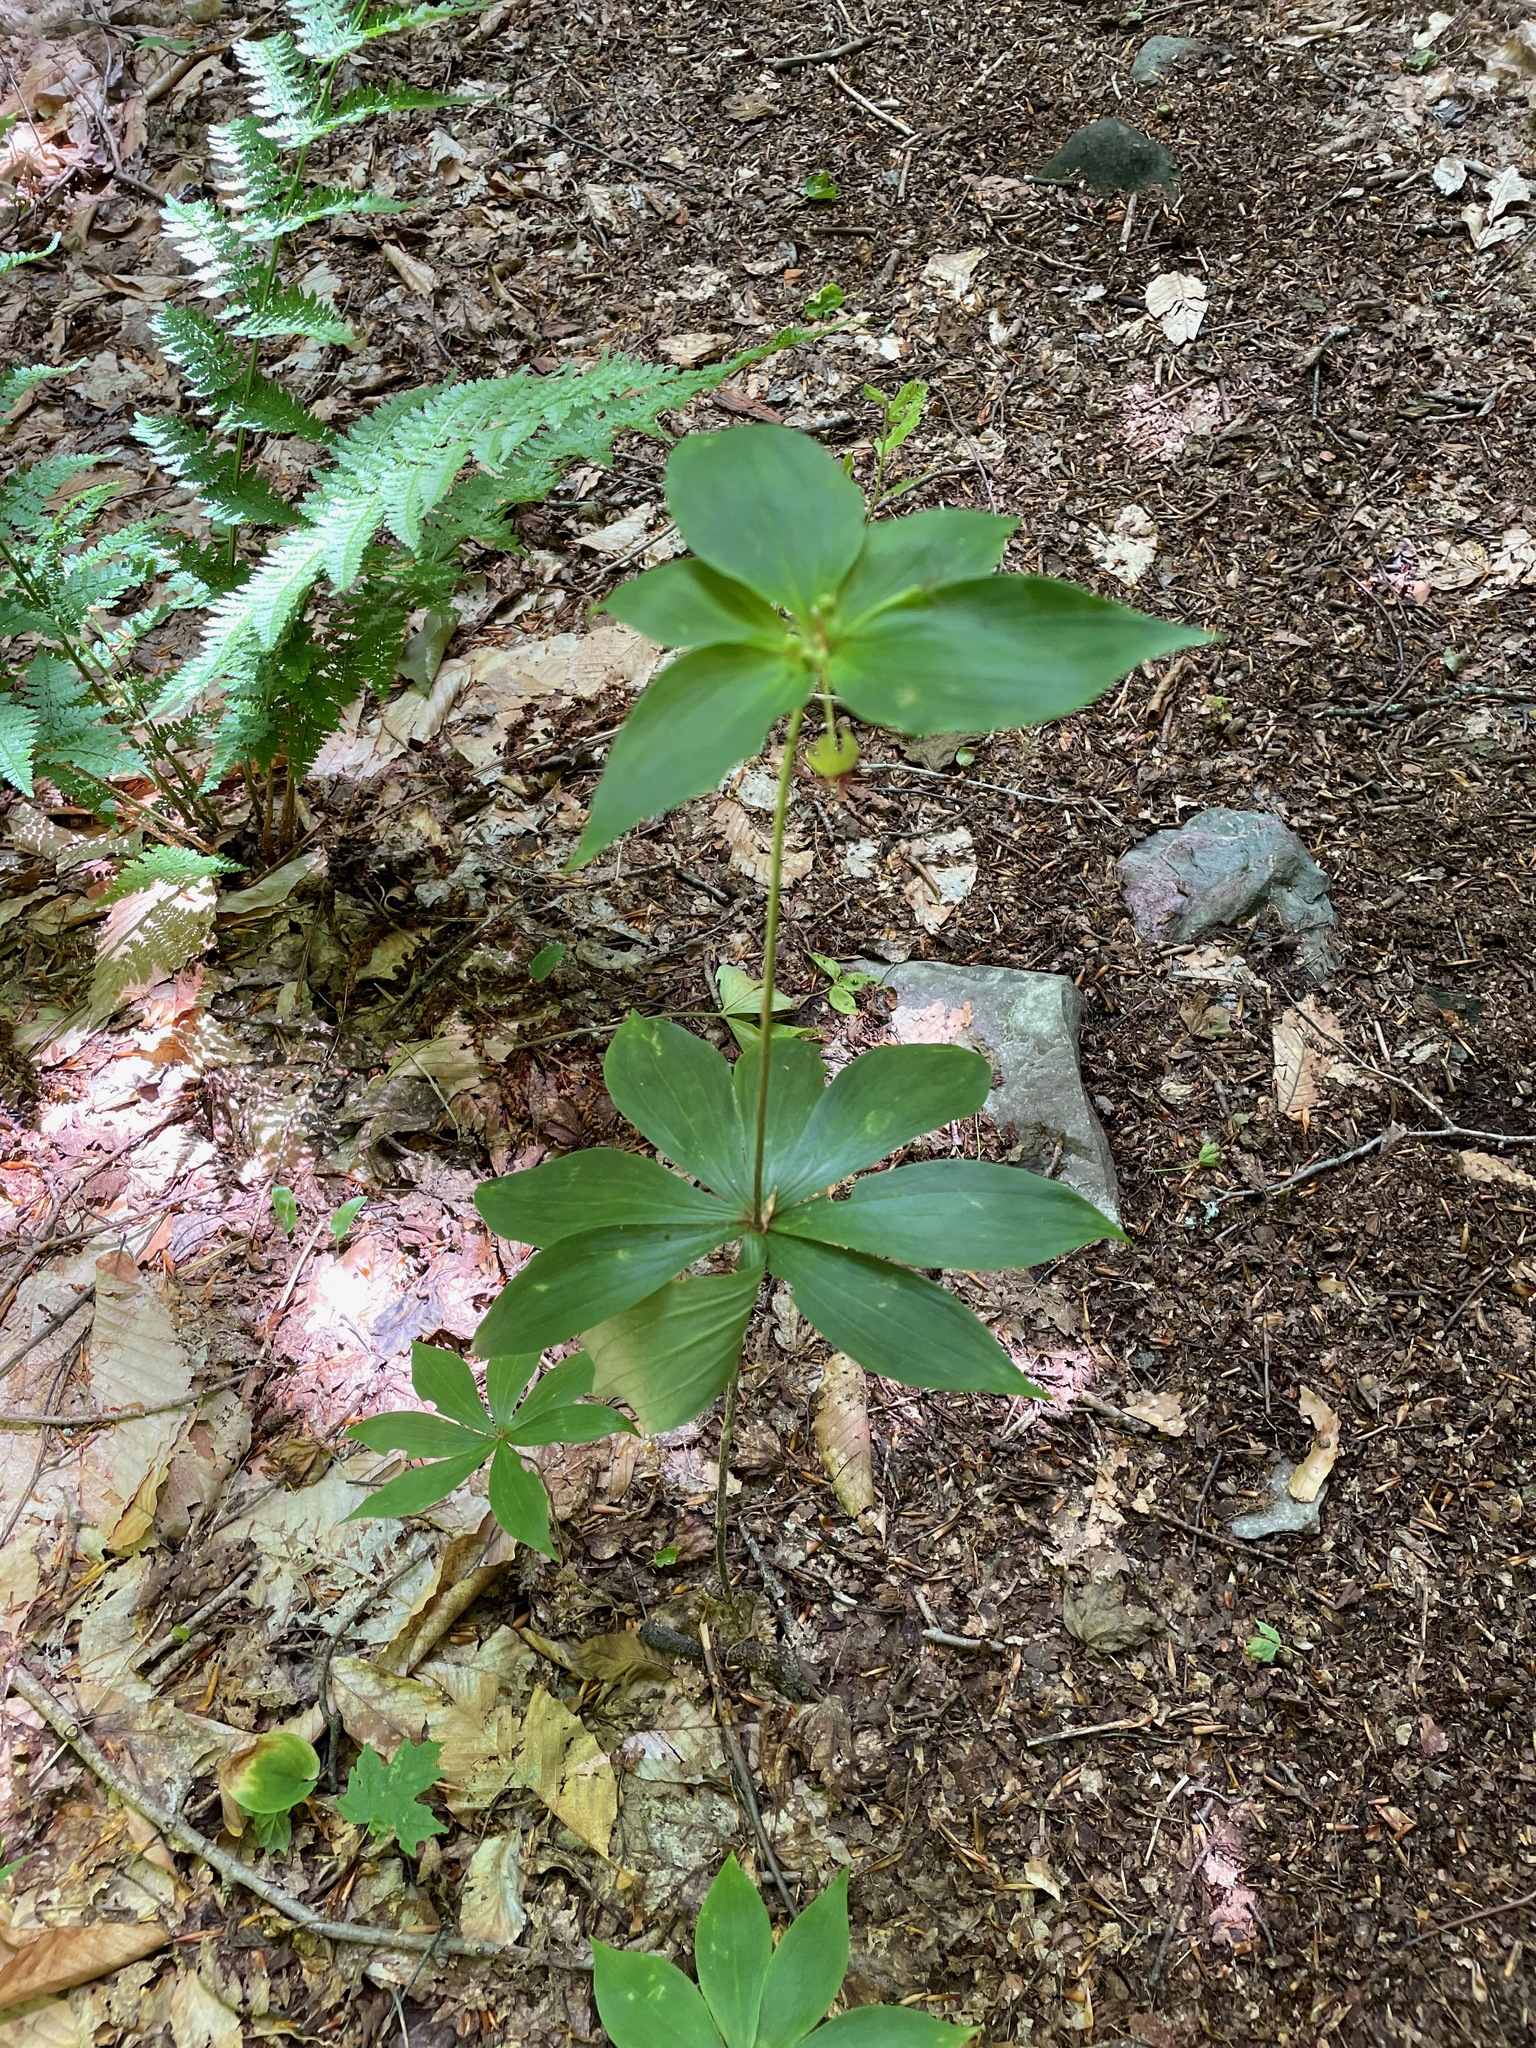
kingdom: Plantae
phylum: Tracheophyta
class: Liliopsida
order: Liliales
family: Liliaceae
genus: Medeola
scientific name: Medeola virginiana
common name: Indian cucumber-root
